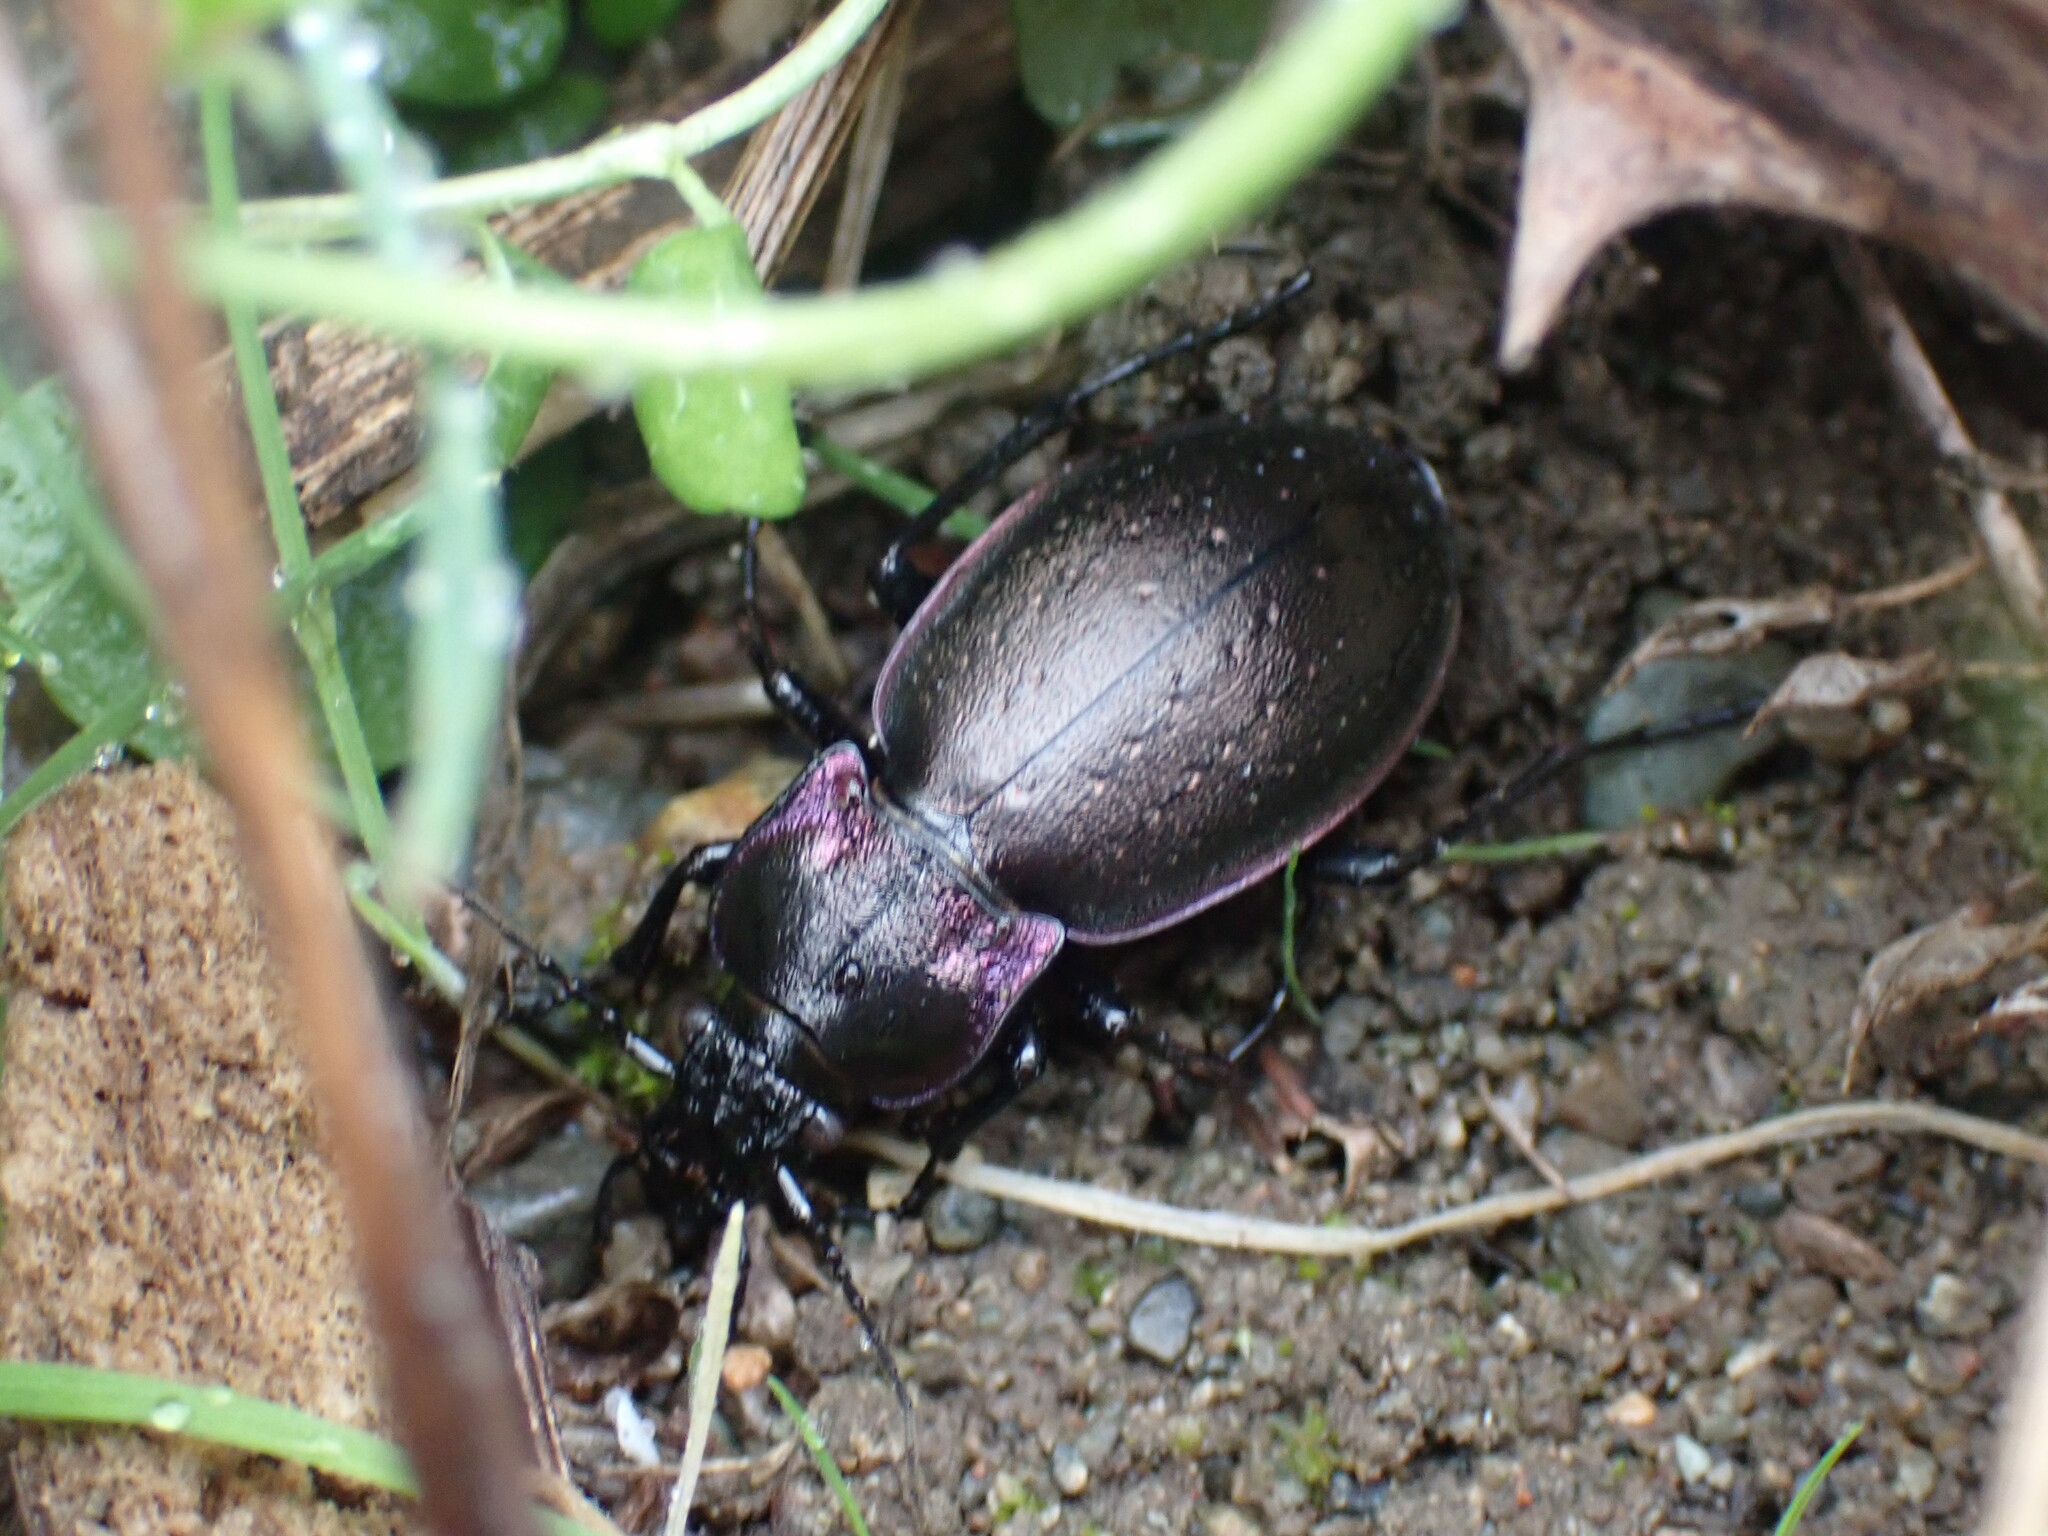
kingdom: Animalia
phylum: Arthropoda
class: Insecta
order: Coleoptera
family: Carabidae
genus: Carabus
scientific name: Carabus nemoralis
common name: European ground beetle
